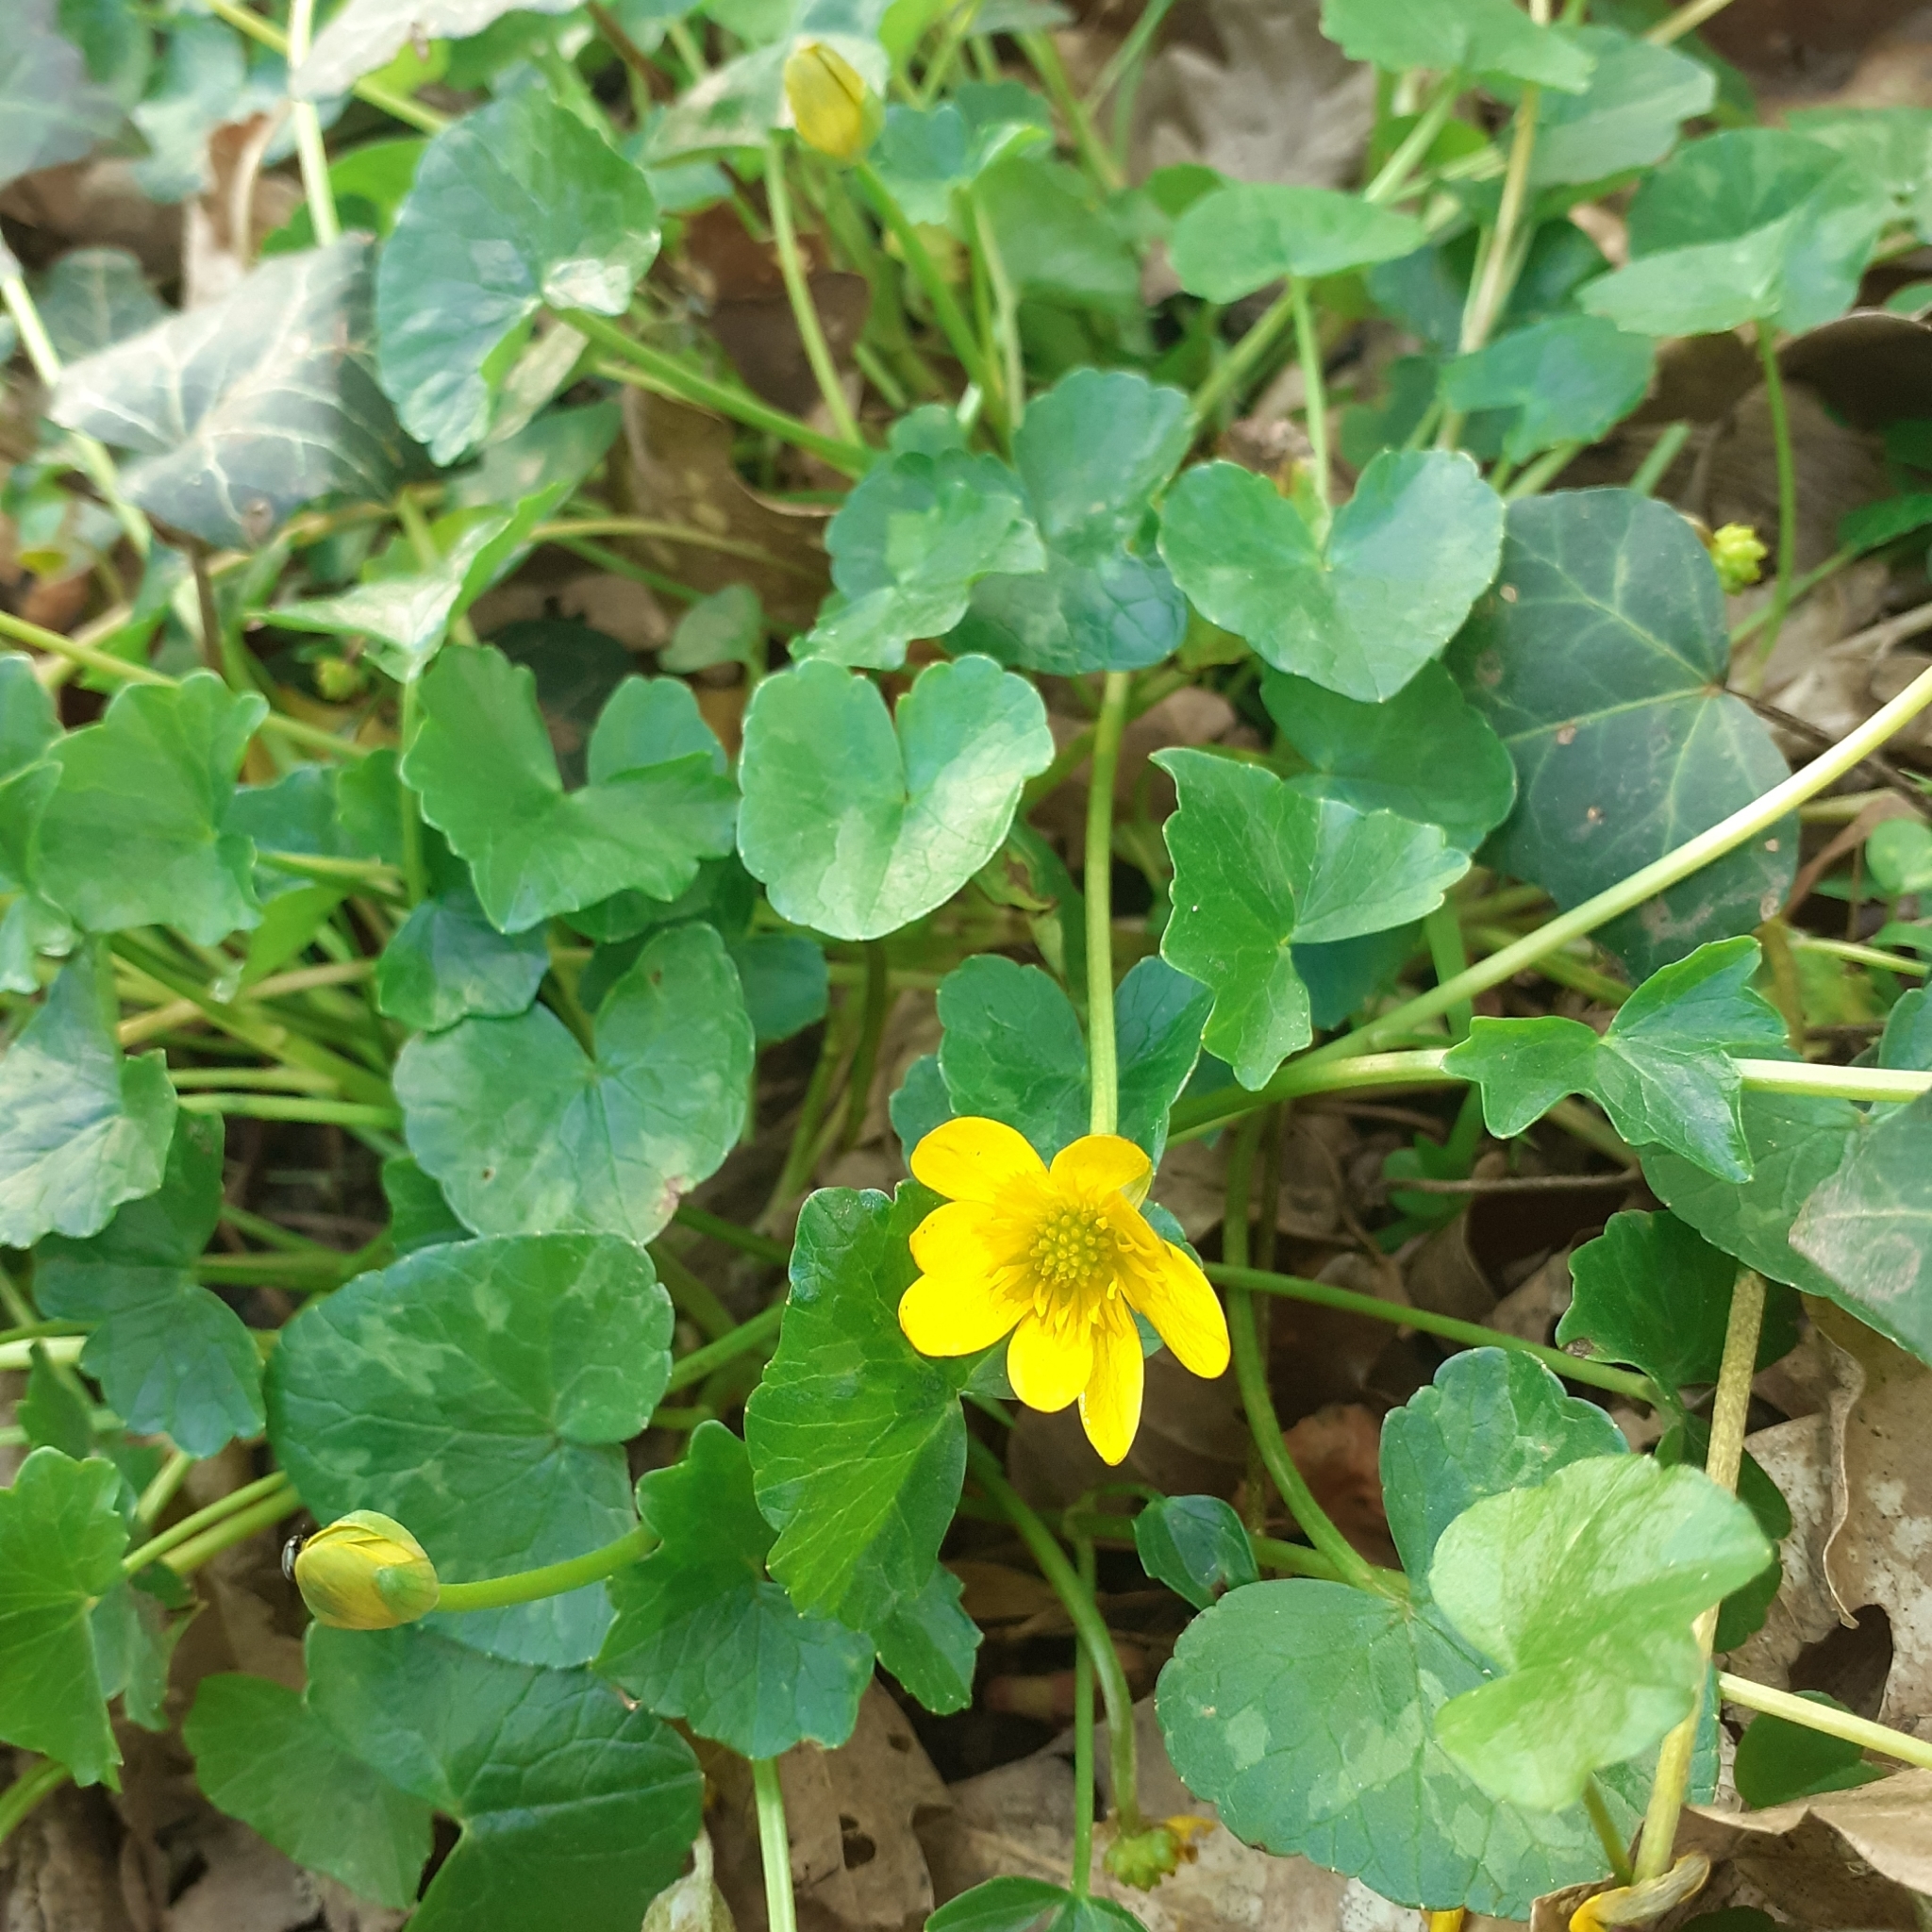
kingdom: Plantae
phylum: Tracheophyta
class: Magnoliopsida
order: Ranunculales
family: Ranunculaceae
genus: Ficaria
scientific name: Ficaria verna
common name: Lesser celandine
